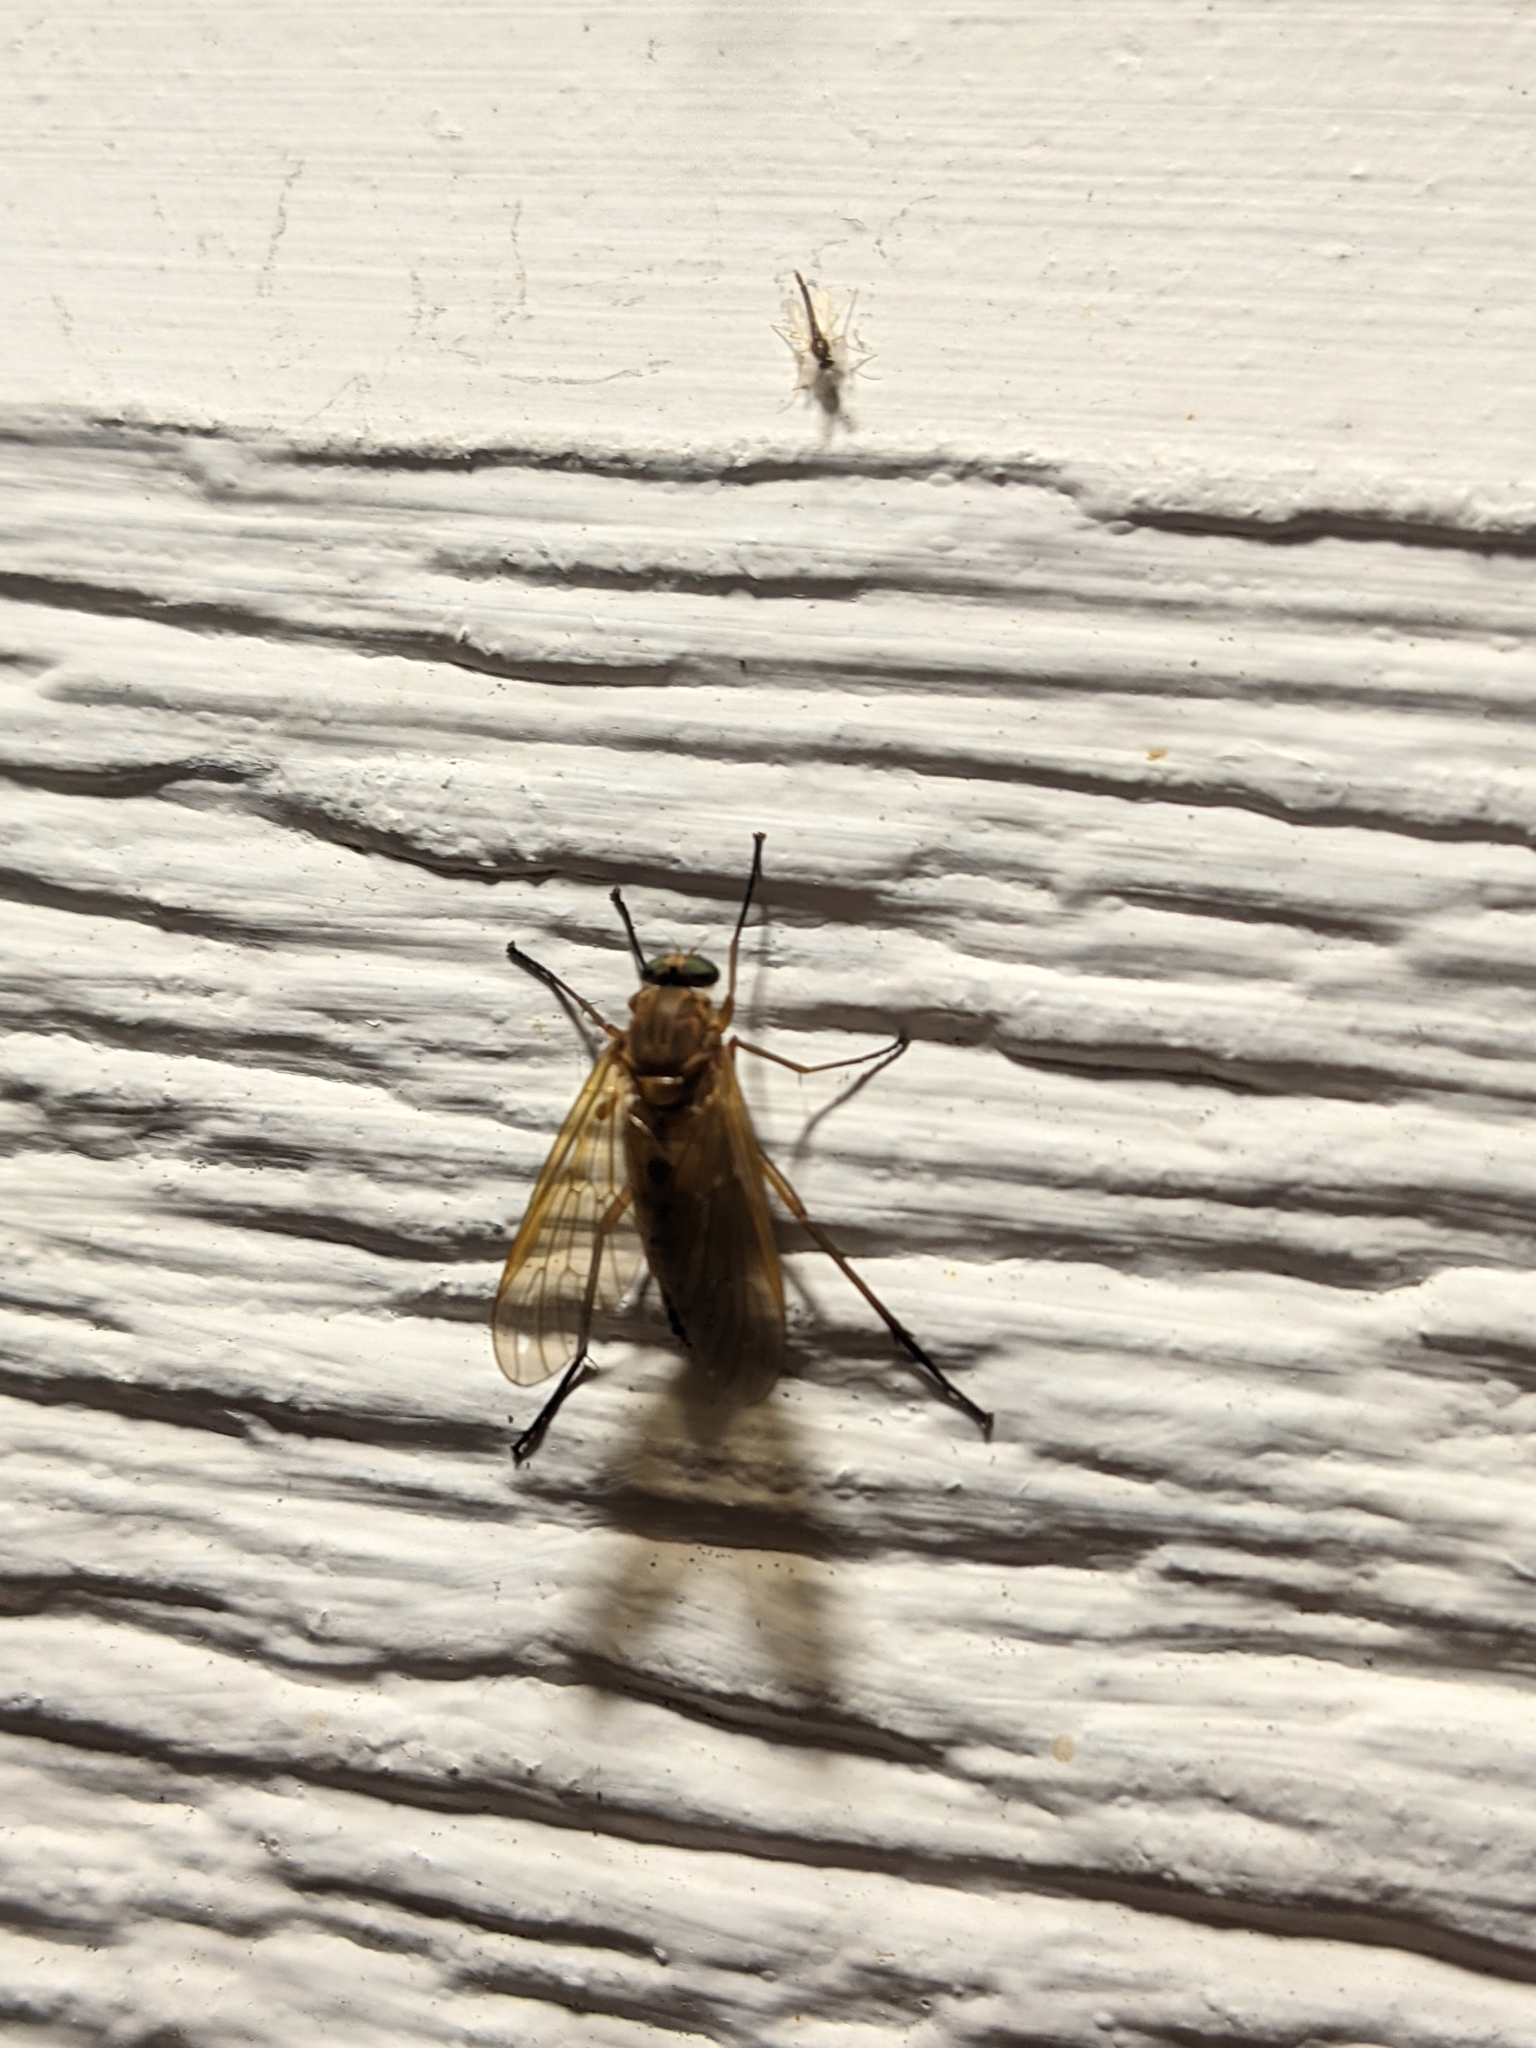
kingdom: Animalia
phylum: Arthropoda
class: Insecta
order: Diptera
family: Rhagionidae
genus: Rhagio
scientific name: Rhagio tringaria
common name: Marsh snipefly
